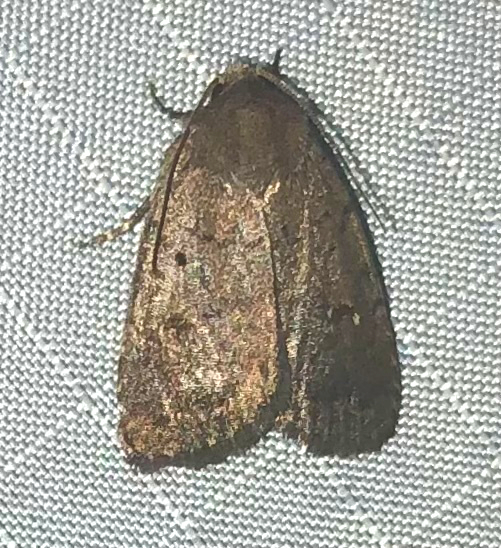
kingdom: Animalia
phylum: Arthropoda
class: Insecta
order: Lepidoptera
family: Noctuidae
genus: Athetis
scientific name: Athetis tarda
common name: Slowpoke moth
